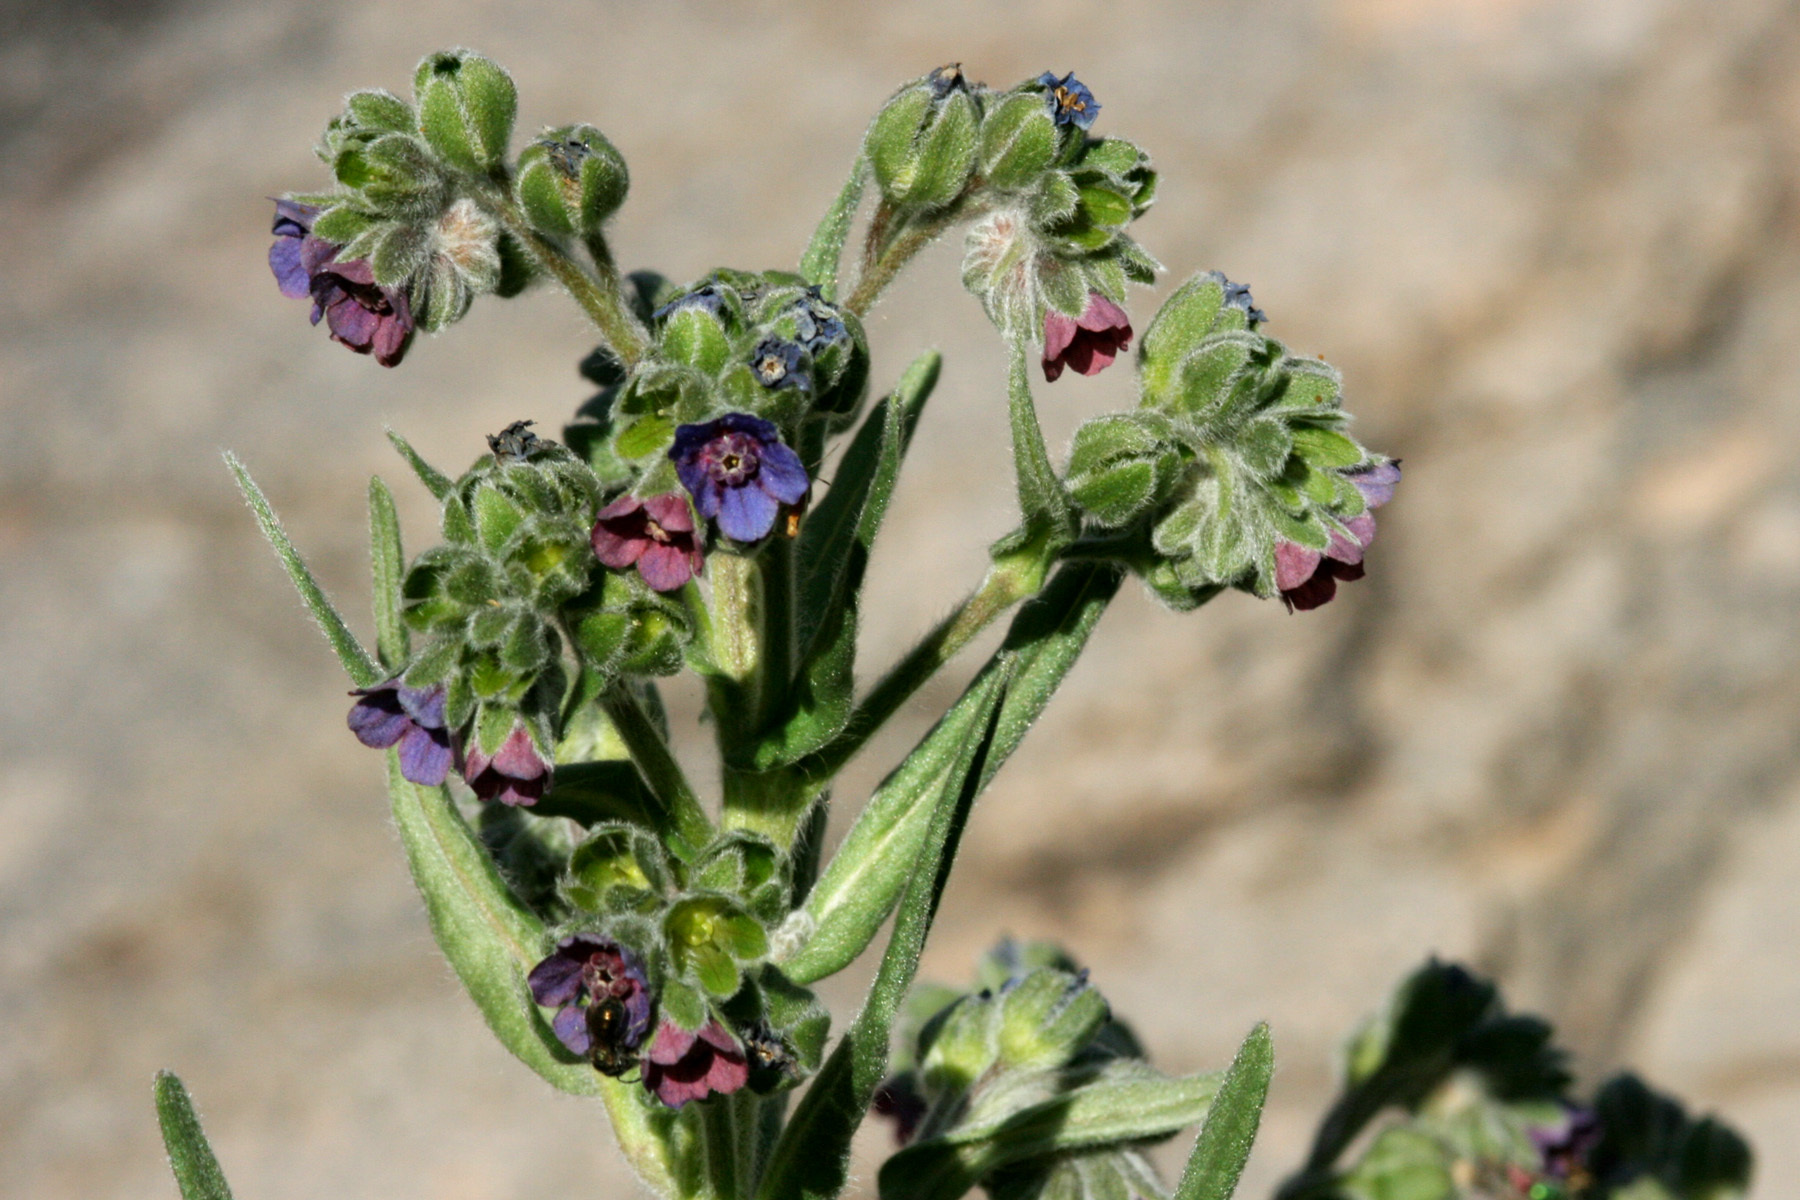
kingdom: Plantae
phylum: Tracheophyta
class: Magnoliopsida
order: Boraginales
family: Boraginaceae
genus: Cynoglossum
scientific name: Cynoglossum officinale
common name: Hound's-tongue
